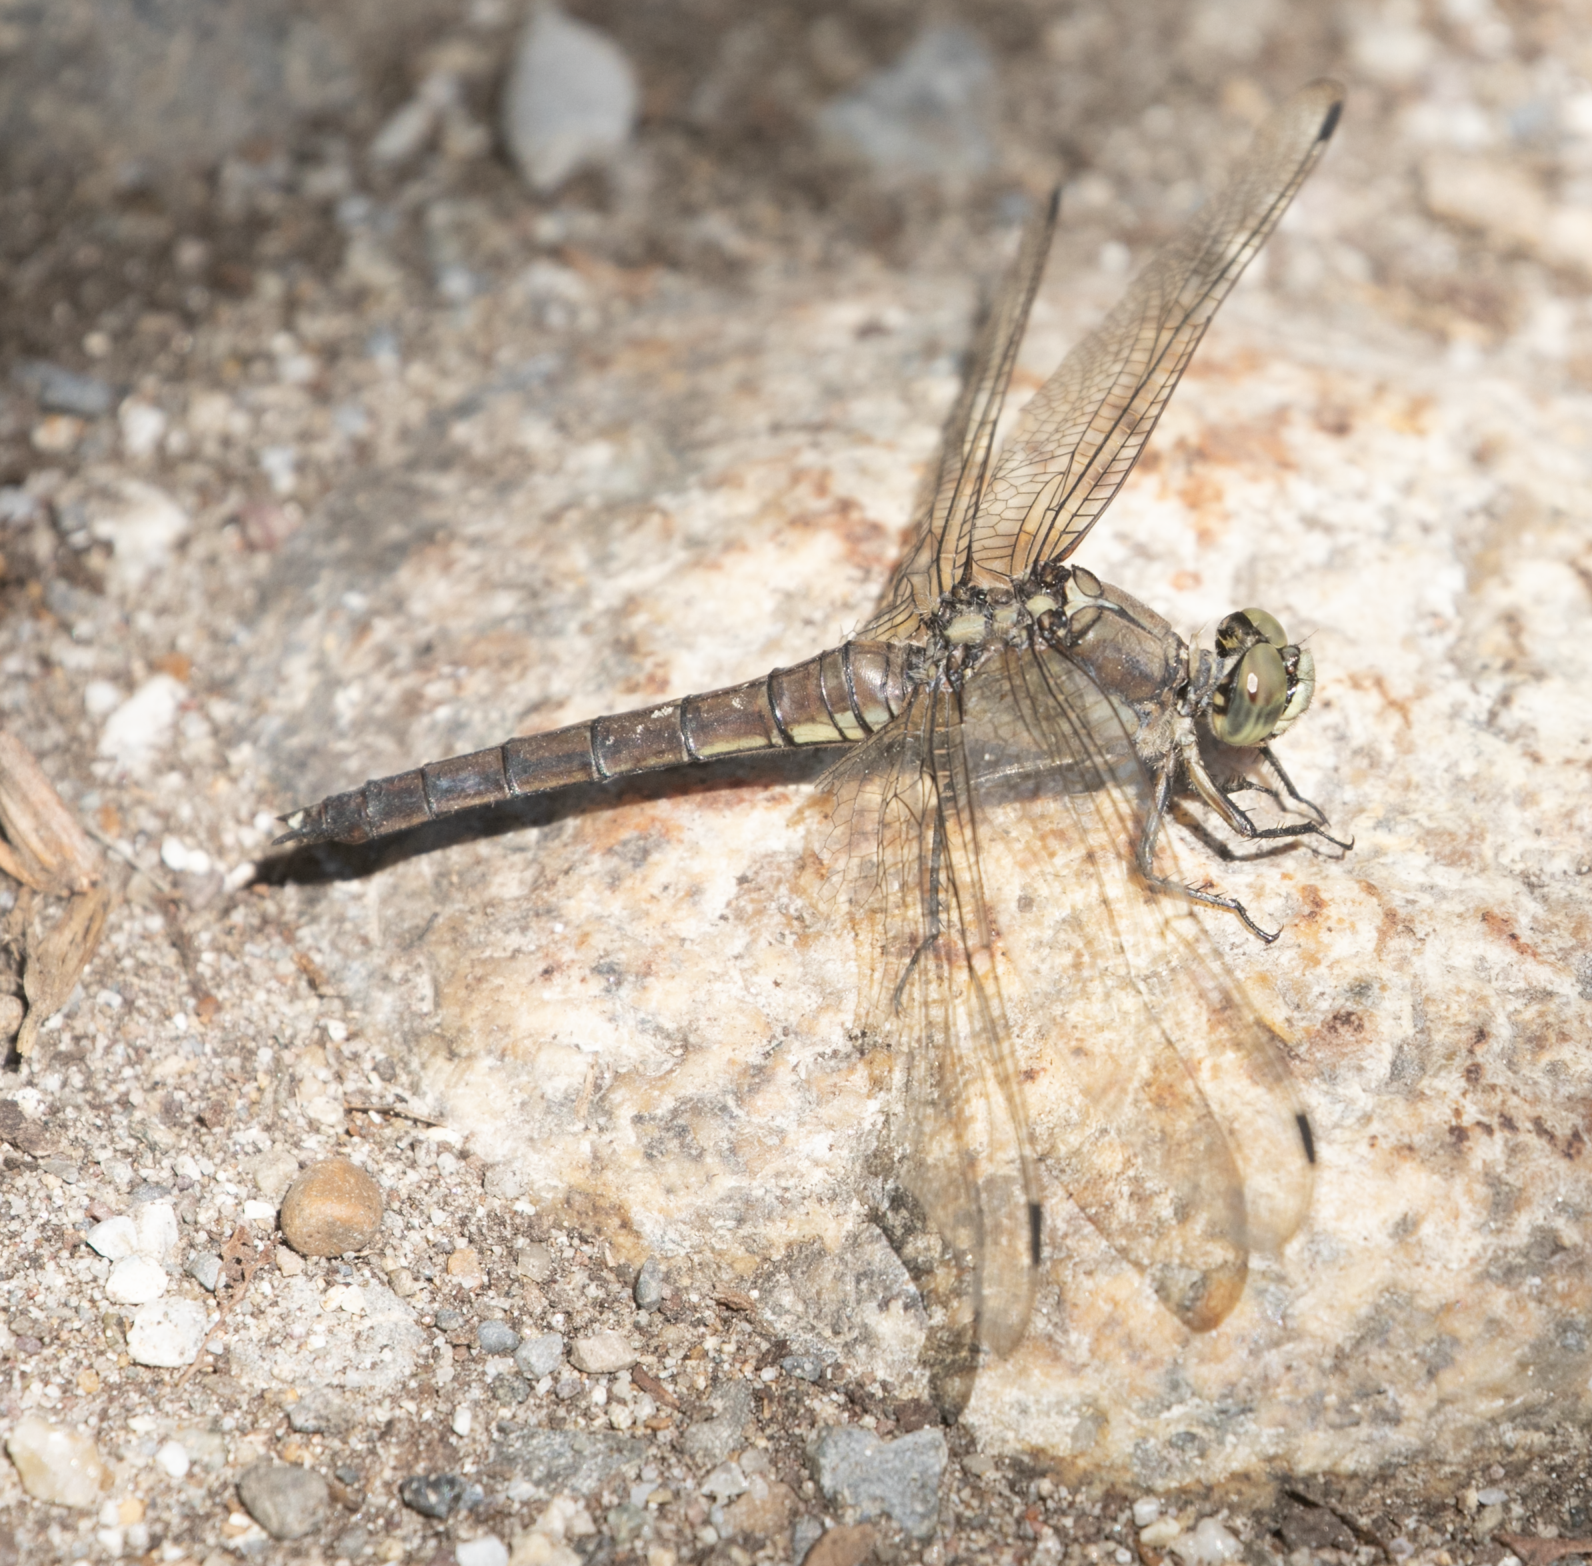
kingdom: Animalia
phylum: Arthropoda
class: Insecta
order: Odonata
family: Libellulidae
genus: Orthetrum
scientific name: Orthetrum cancellatum
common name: Black-tailed skimmer
